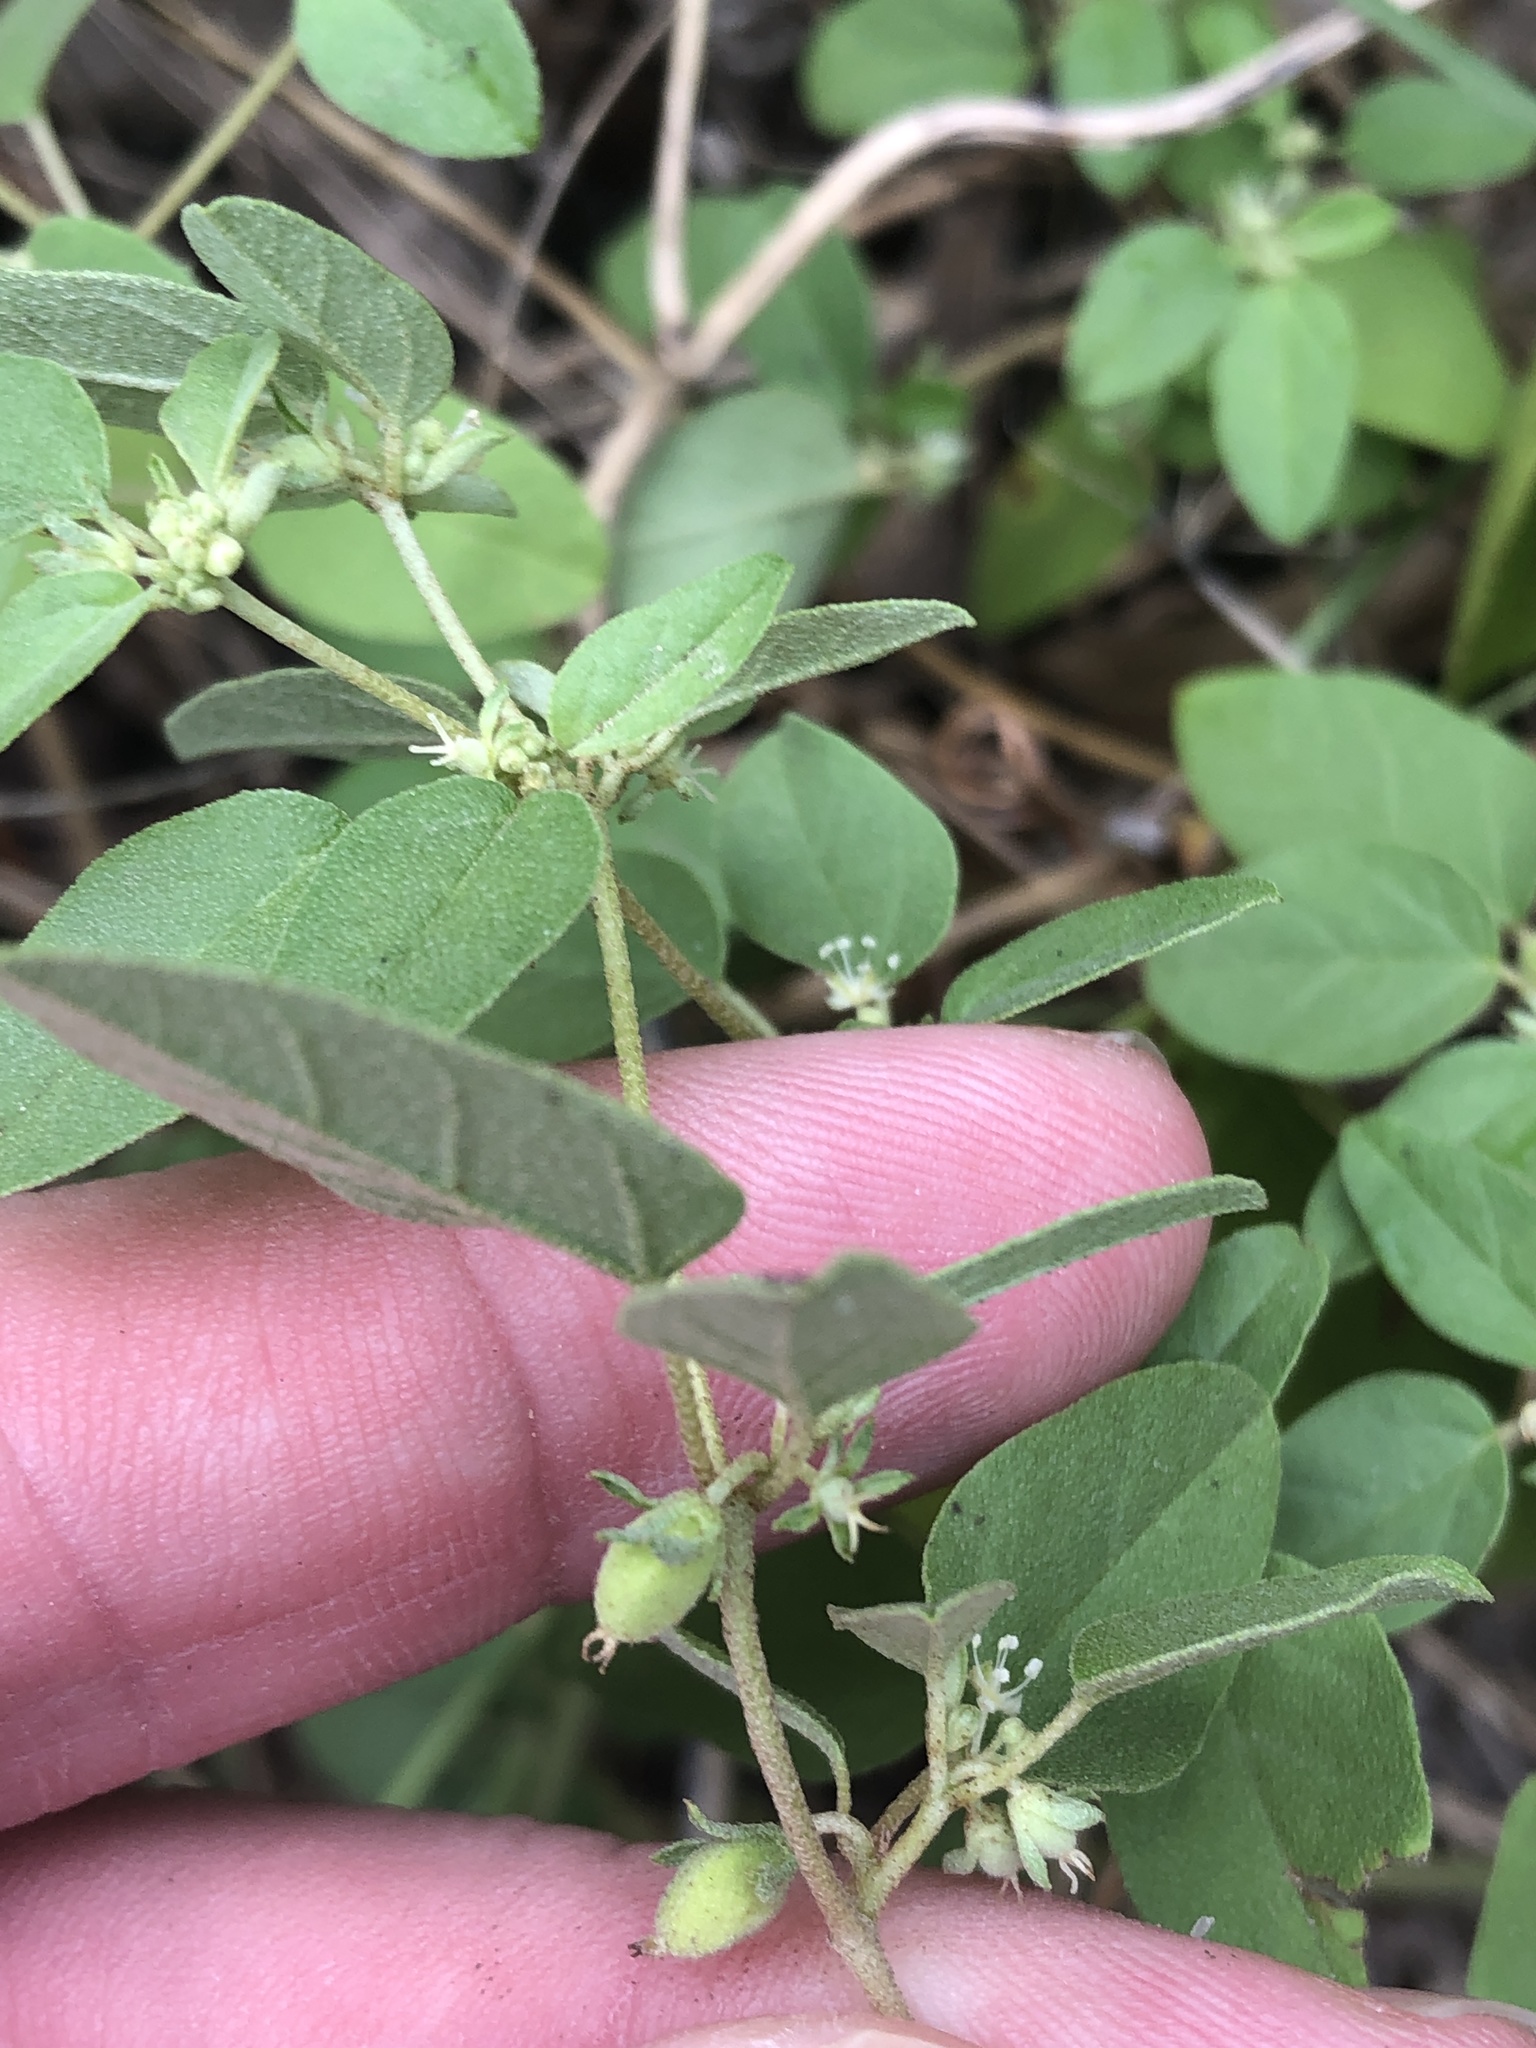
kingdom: Plantae
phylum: Tracheophyta
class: Magnoliopsida
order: Malpighiales
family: Euphorbiaceae
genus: Croton
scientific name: Croton monanthogynus
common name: One-seed croton
